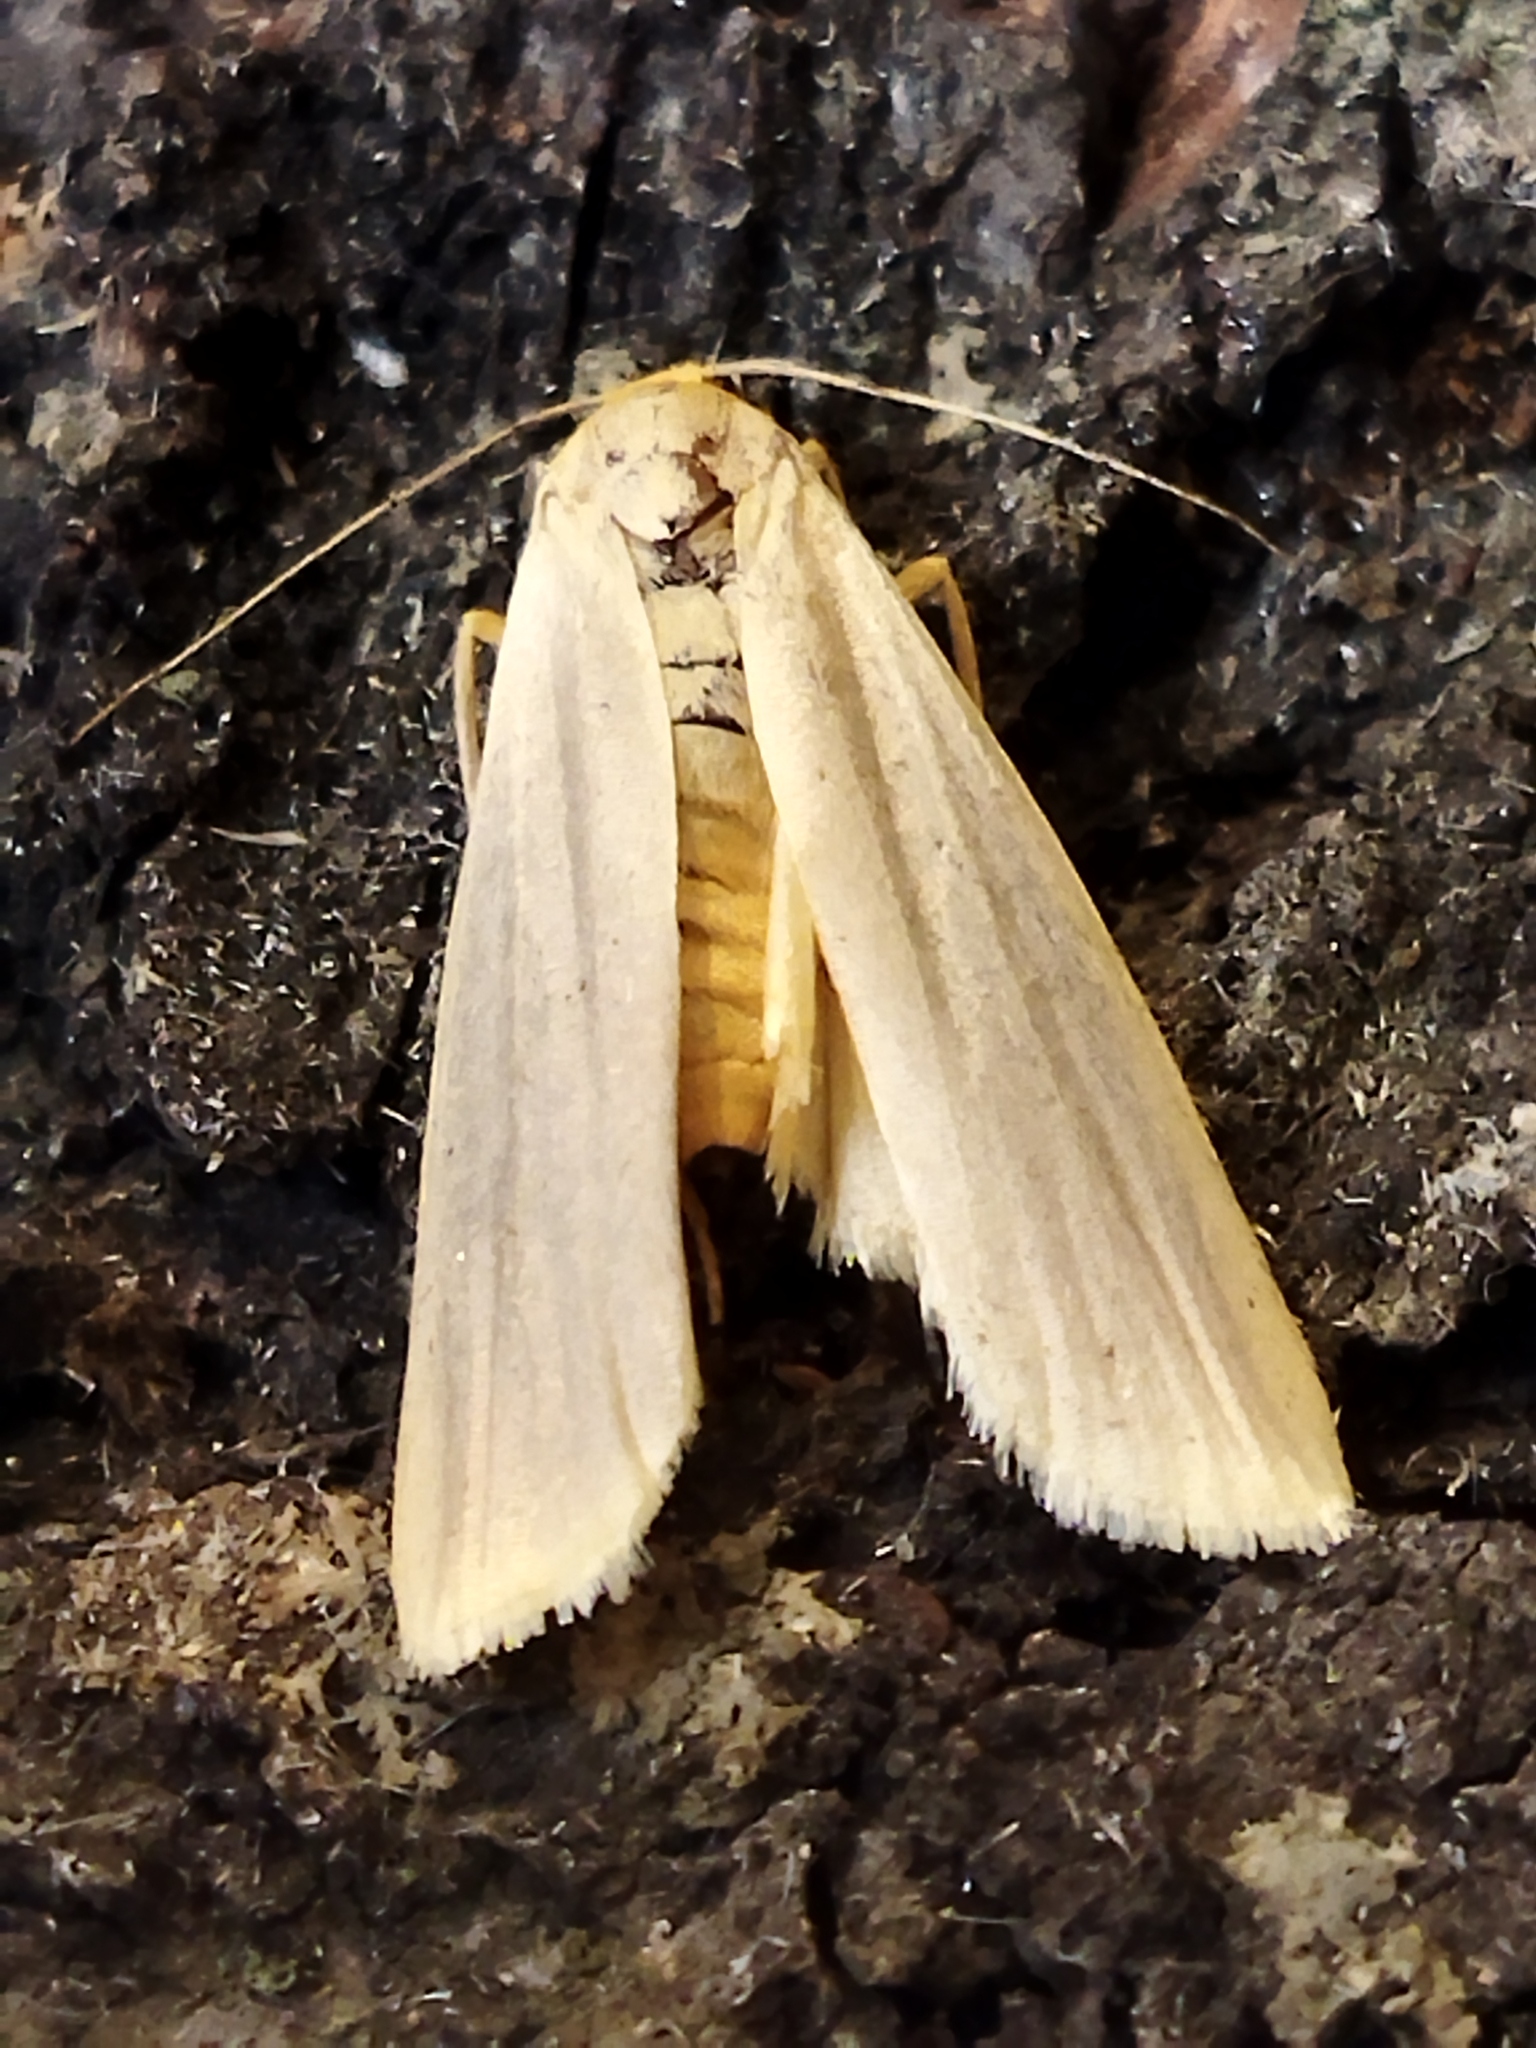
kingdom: Animalia
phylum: Arthropoda
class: Insecta
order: Lepidoptera
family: Erebidae
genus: Eilema
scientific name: Eilema caniola
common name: Hoary footman
